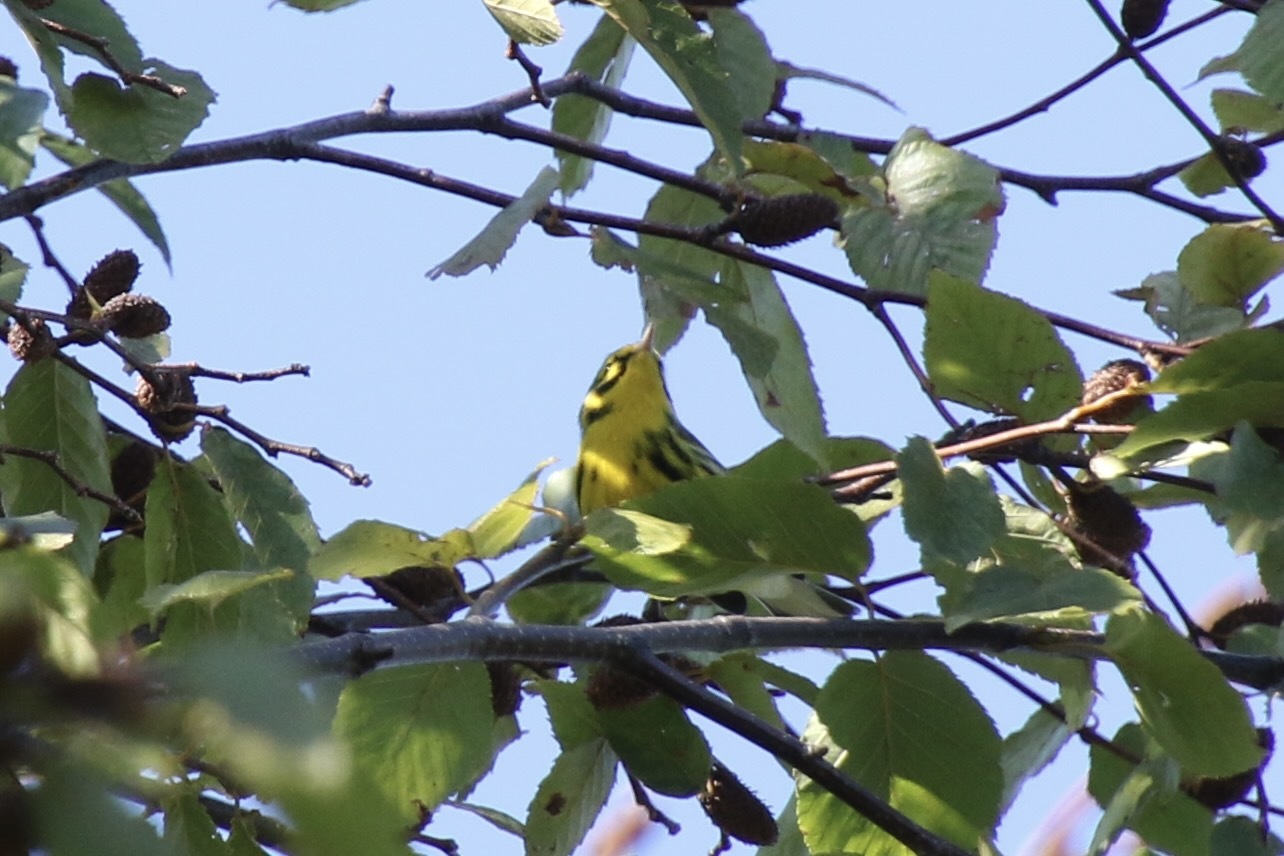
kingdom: Animalia
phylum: Chordata
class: Aves
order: Passeriformes
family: Parulidae
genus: Setophaga
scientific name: Setophaga discolor
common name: Prairie warbler
